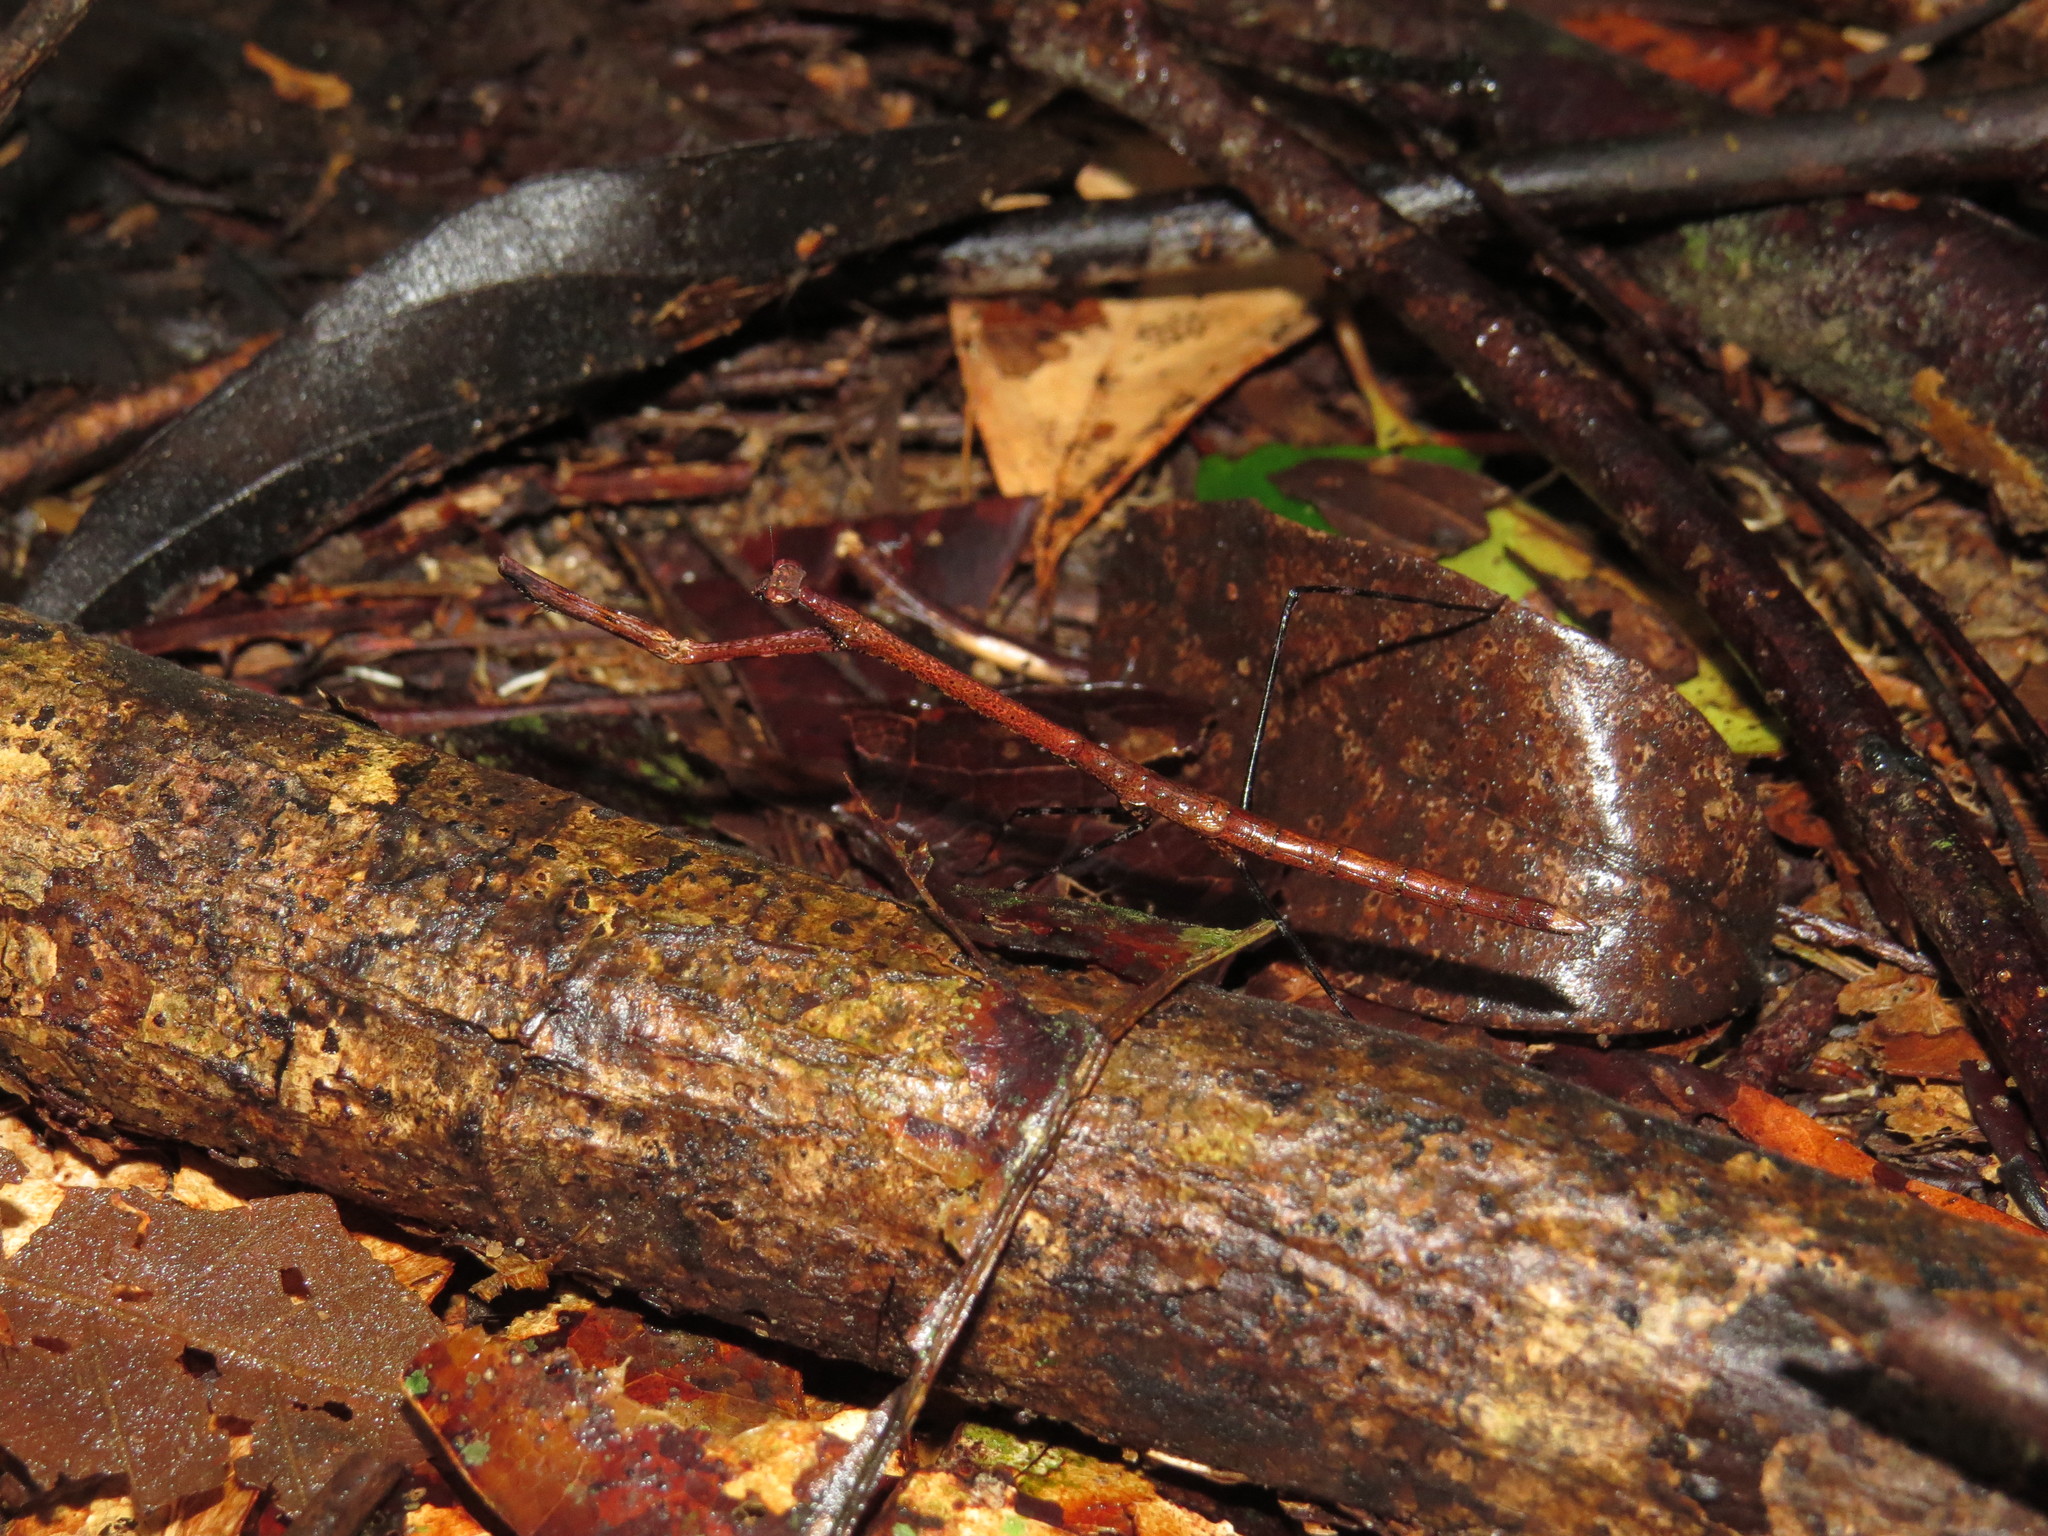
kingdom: Animalia
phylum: Arthropoda
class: Insecta
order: Mantodea
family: Thespidae
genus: Macromusonia
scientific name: Macromusonia major
